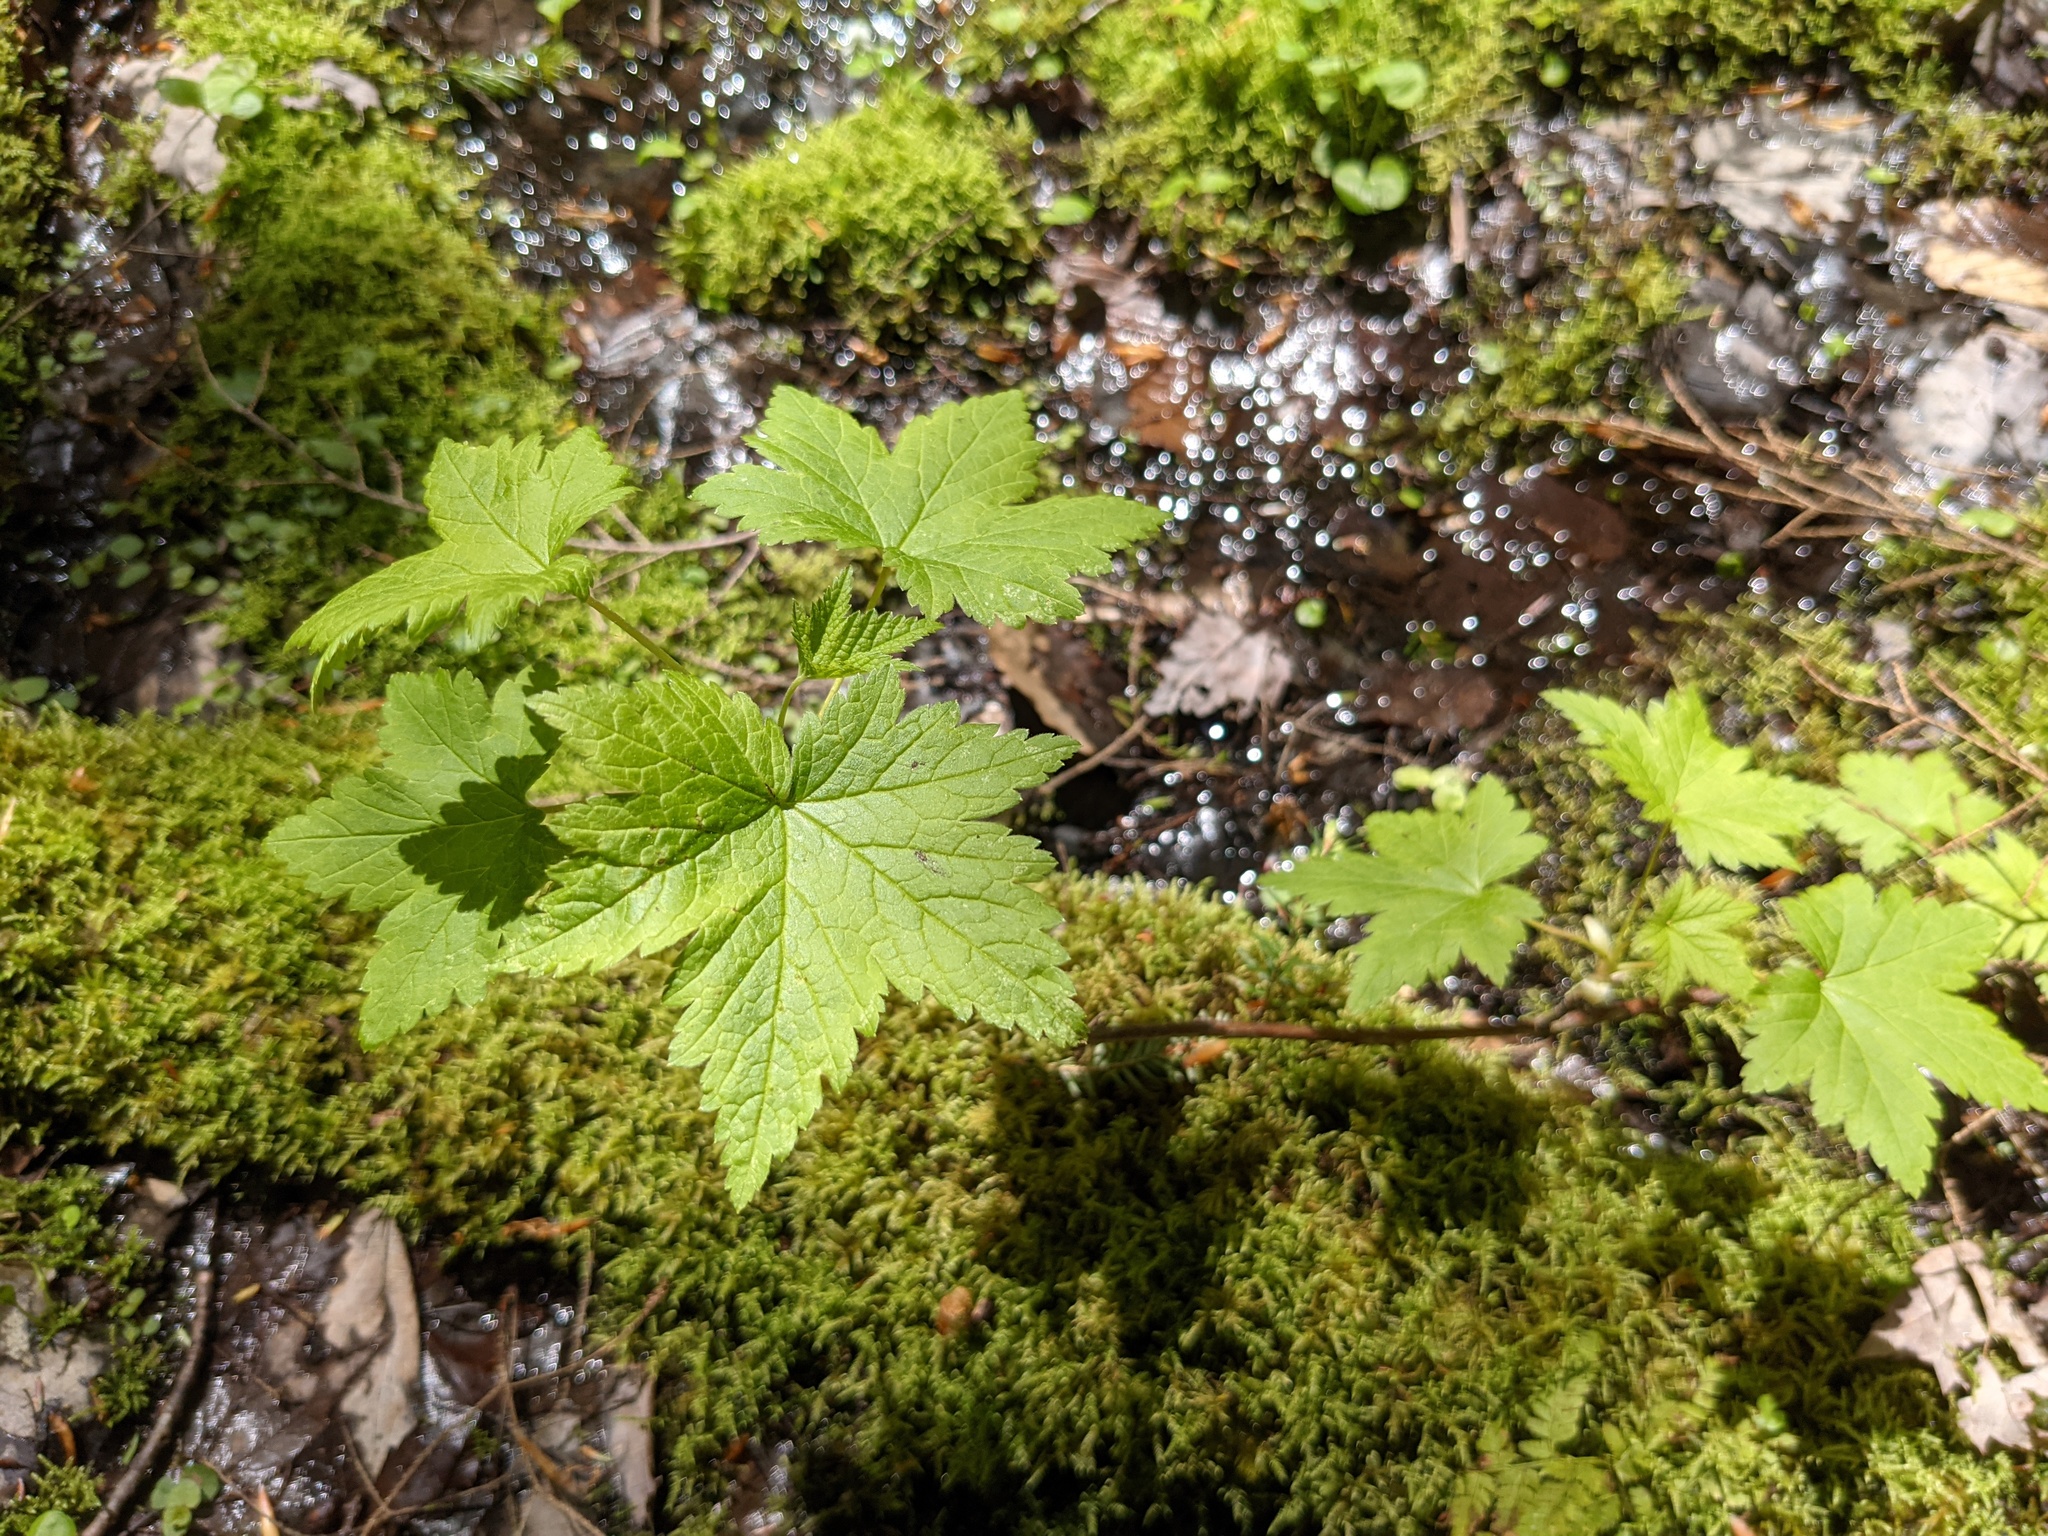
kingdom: Plantae
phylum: Tracheophyta
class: Magnoliopsida
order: Saxifragales
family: Grossulariaceae
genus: Ribes
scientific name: Ribes glandulosum
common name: Skunk currant
